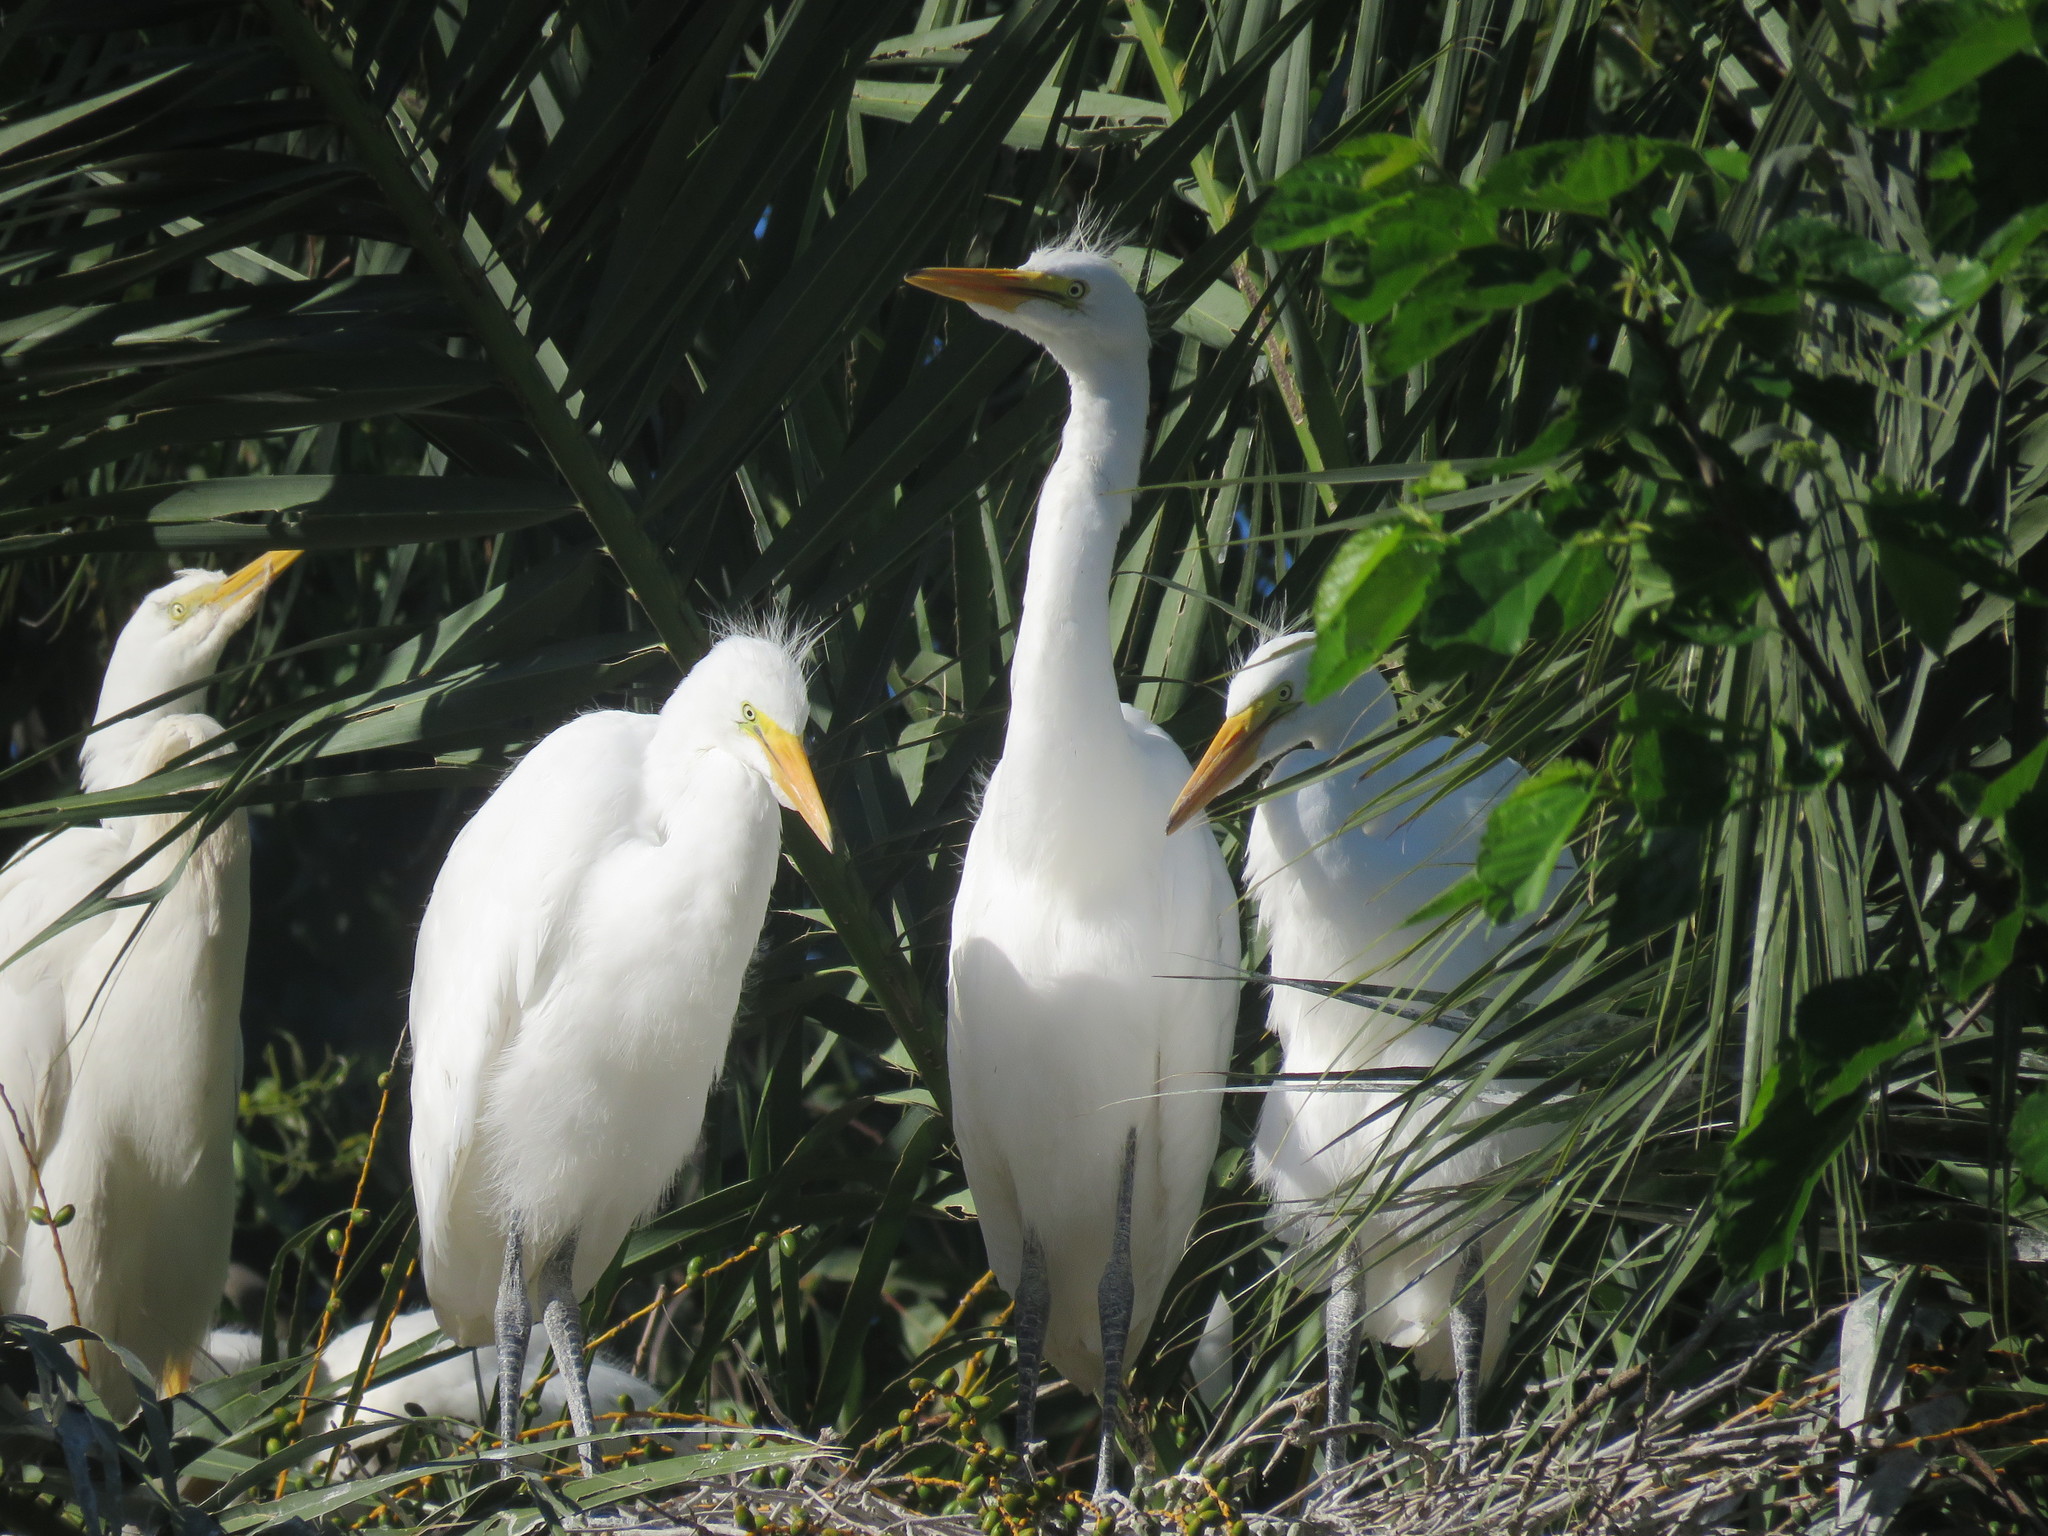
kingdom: Animalia
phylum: Chordata
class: Aves
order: Pelecaniformes
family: Ardeidae
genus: Ardea
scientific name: Ardea alba
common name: Great egret
